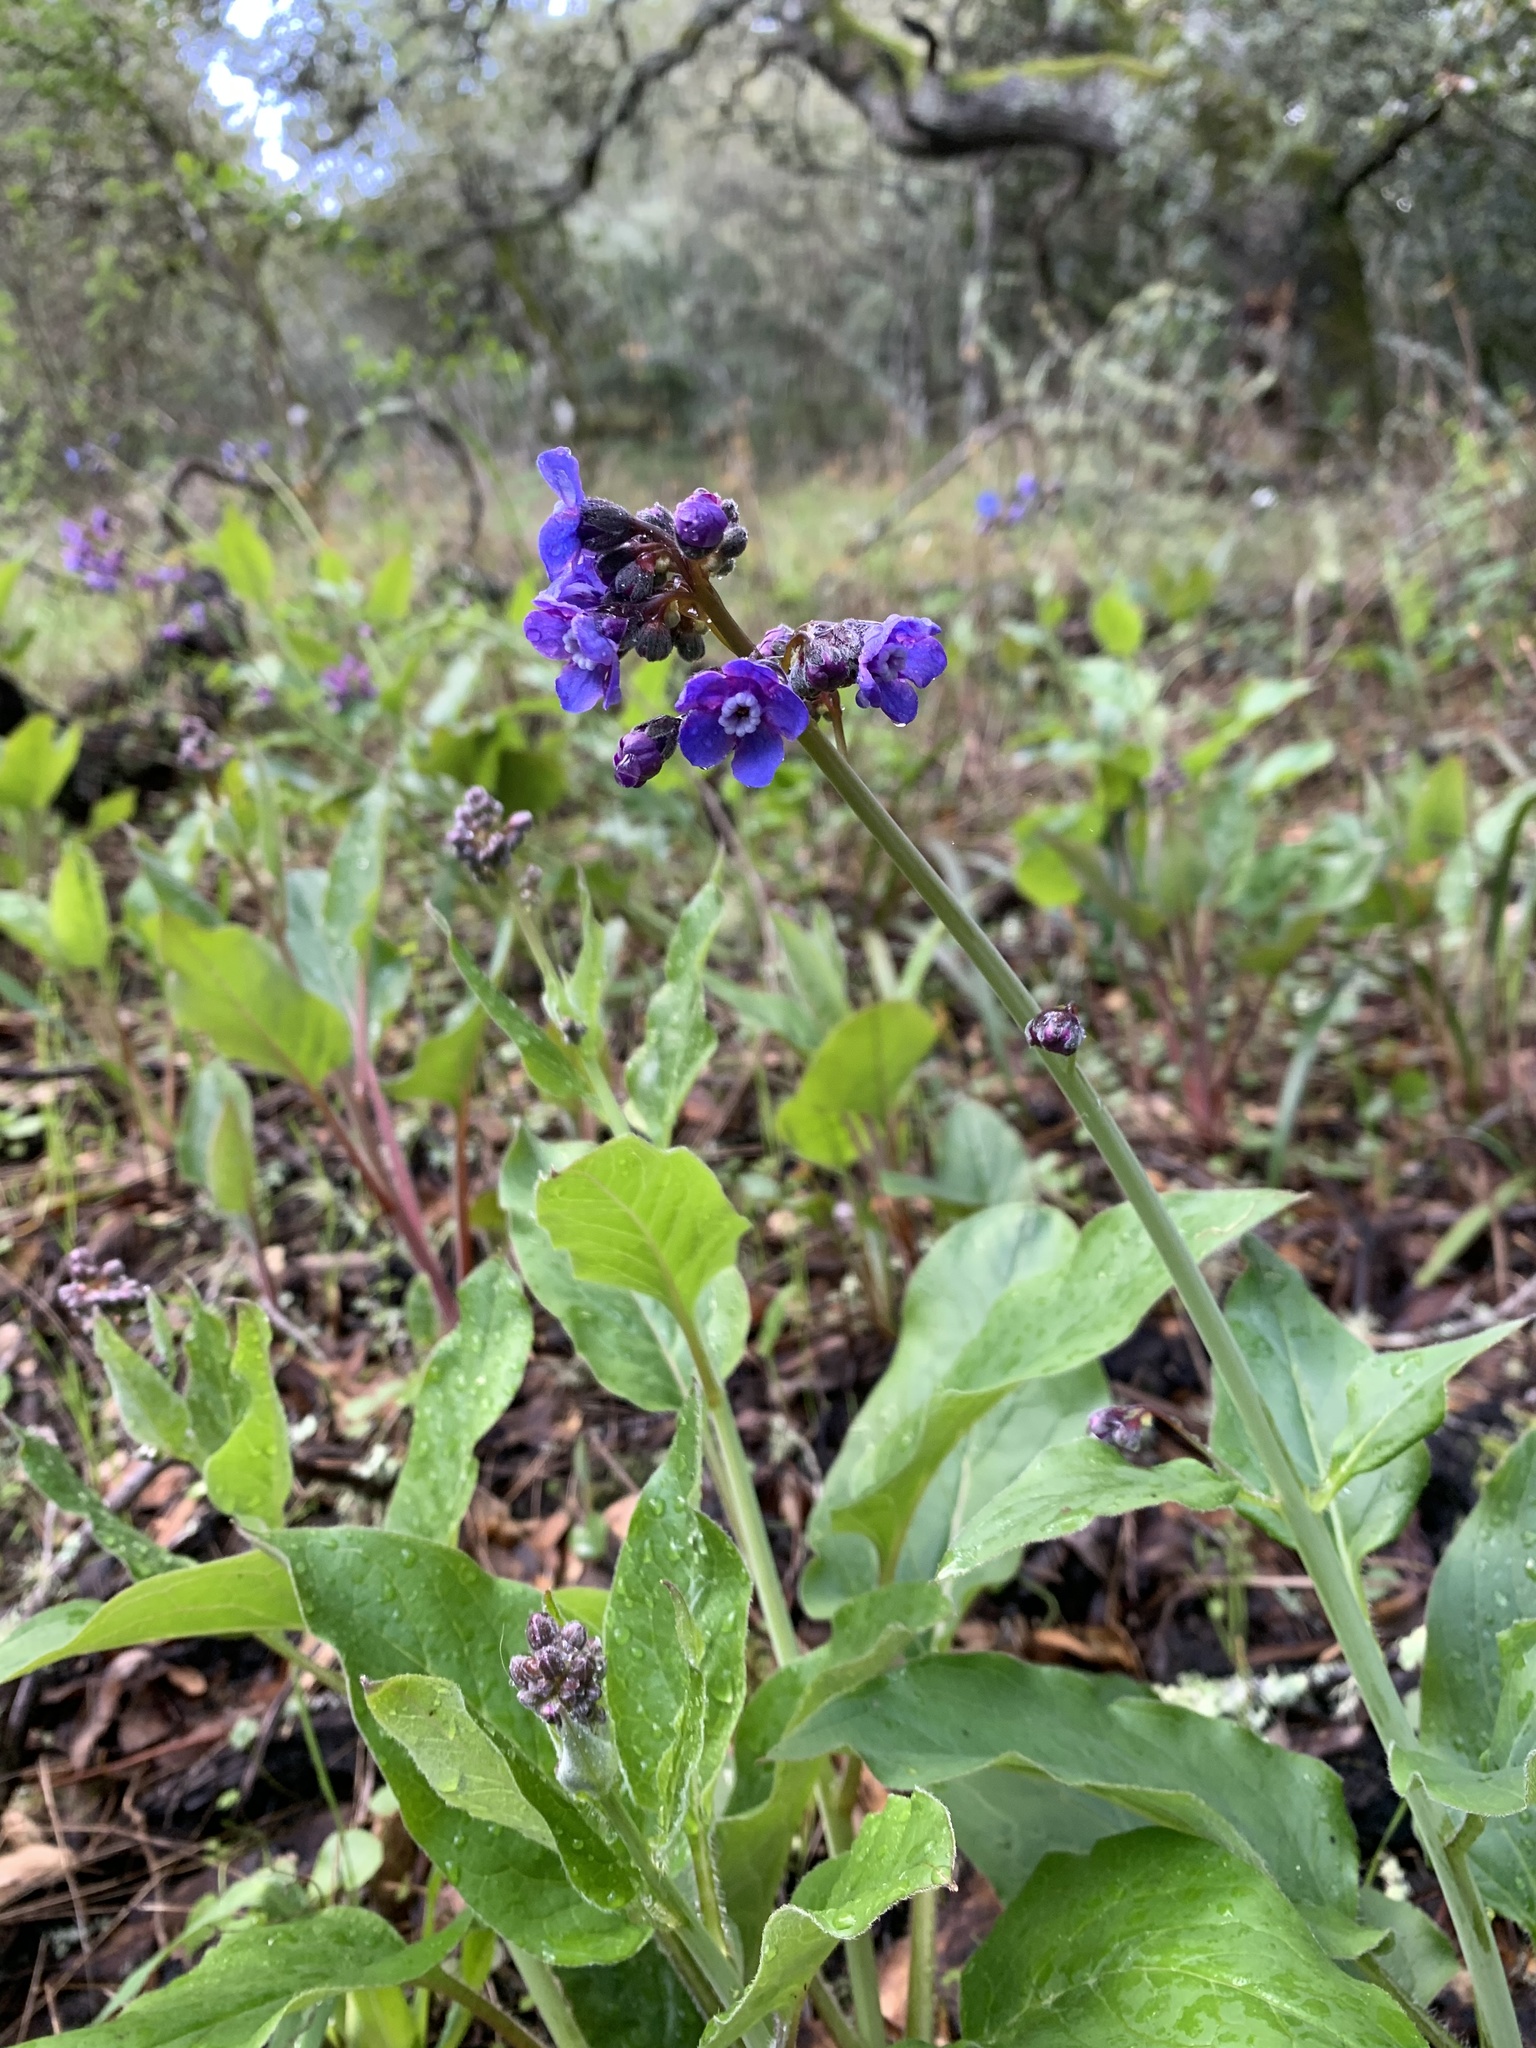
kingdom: Plantae
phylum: Tracheophyta
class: Magnoliopsida
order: Boraginales
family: Boraginaceae
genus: Adelinia
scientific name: Adelinia grande
